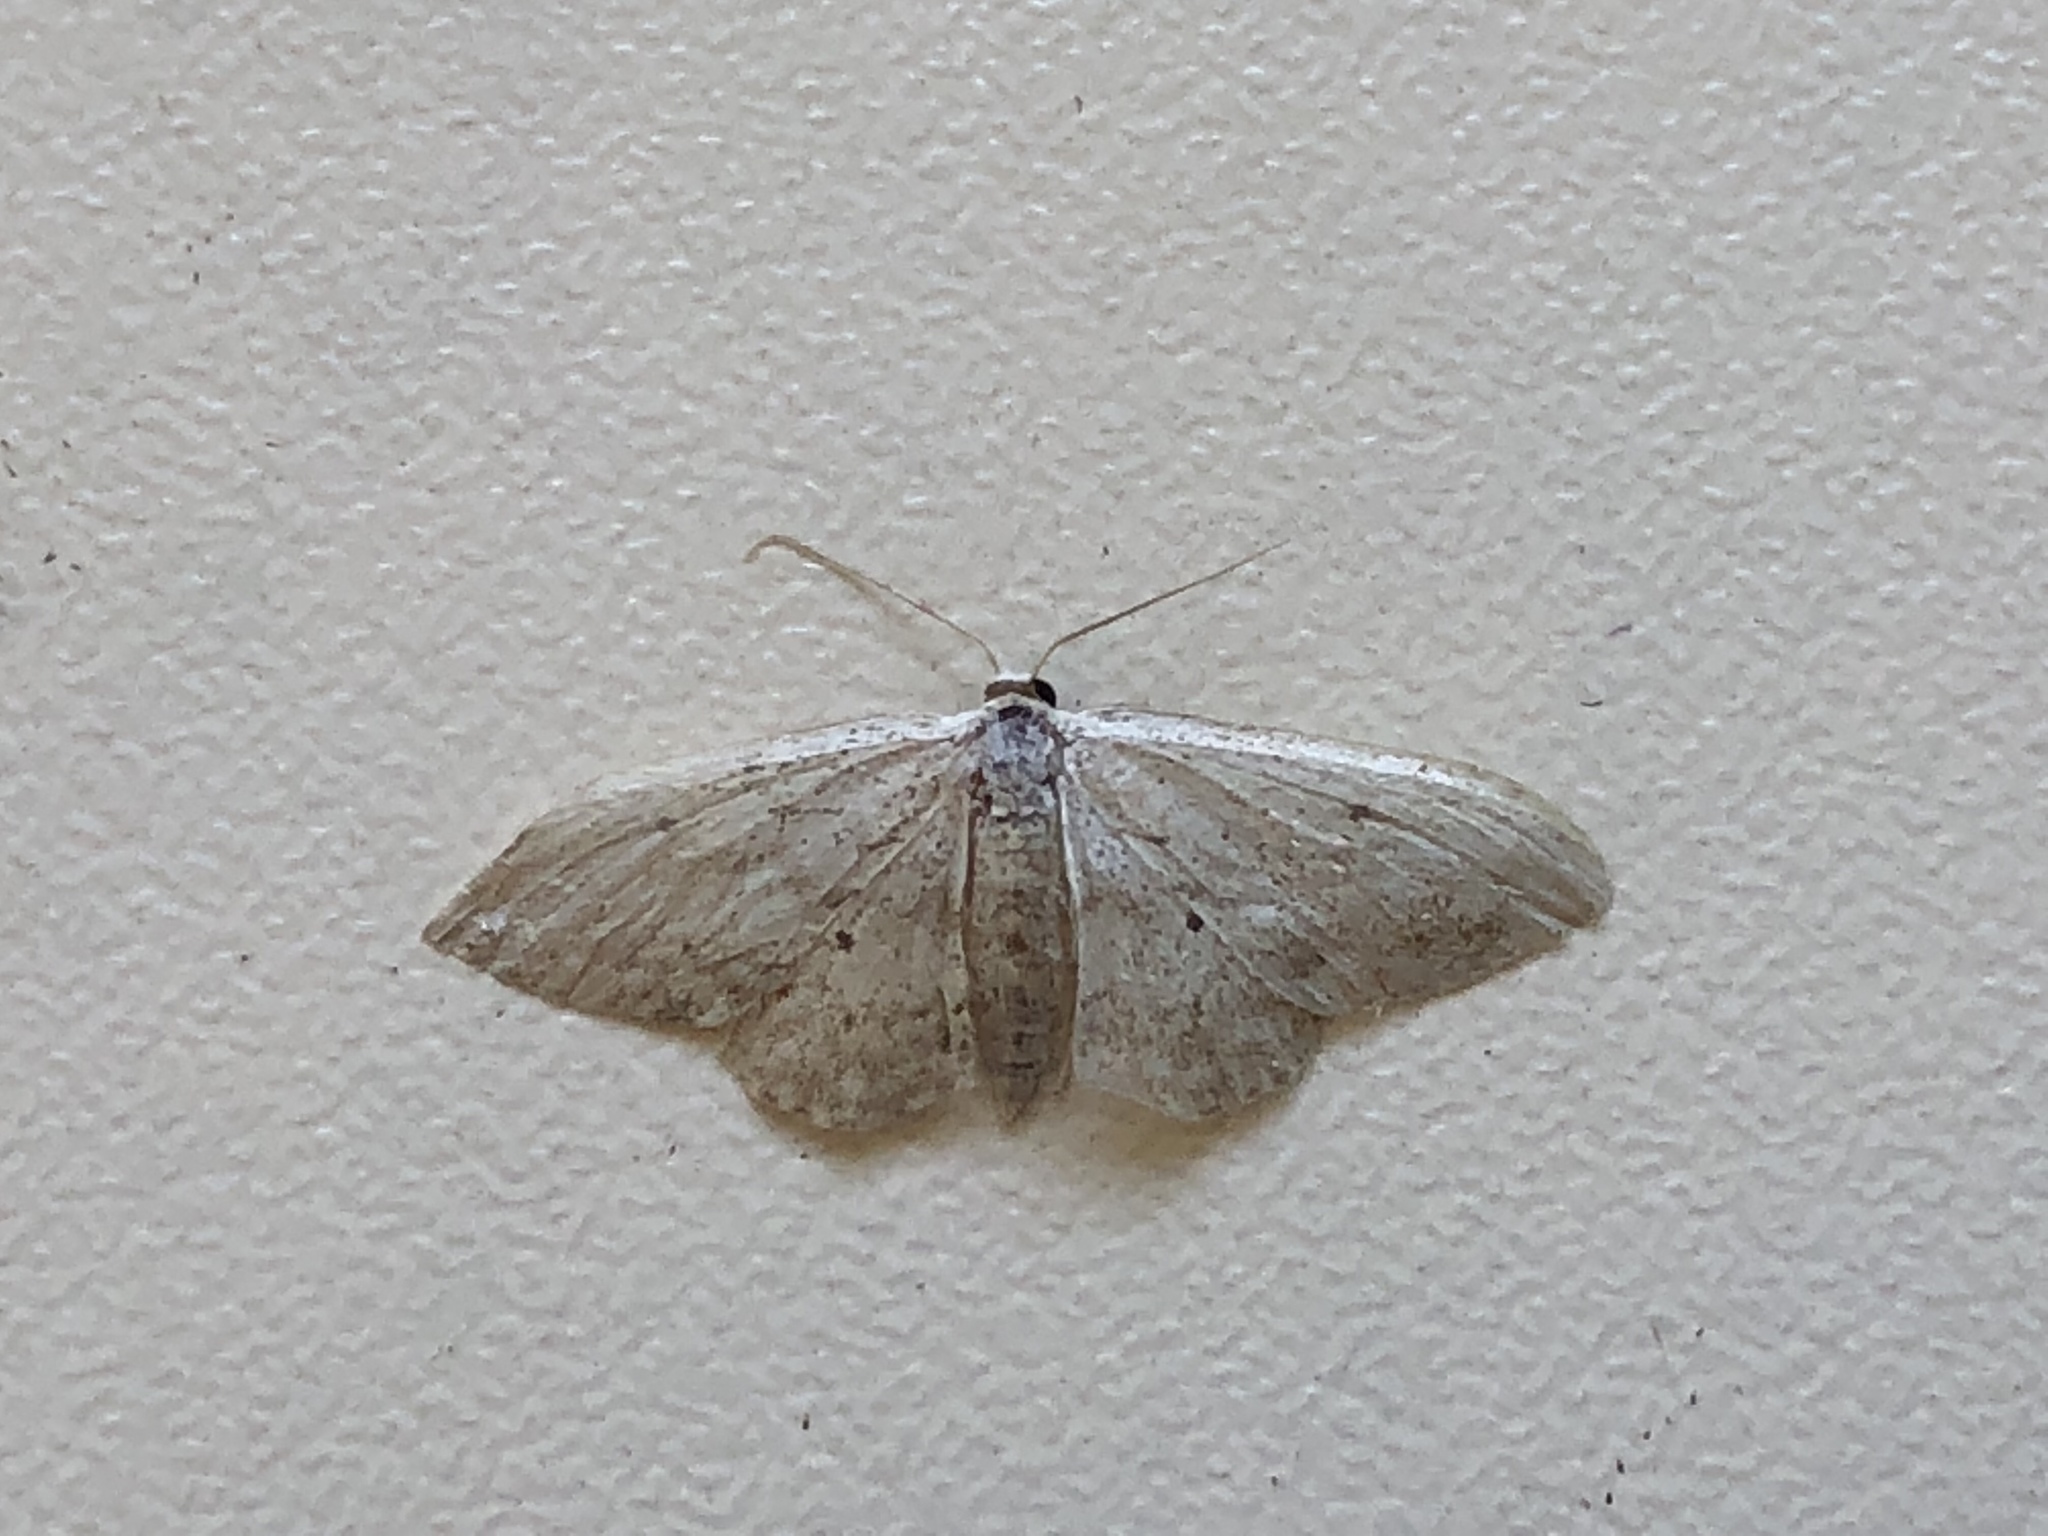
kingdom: Animalia
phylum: Arthropoda
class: Insecta
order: Lepidoptera
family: Geometridae
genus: Idaea
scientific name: Idaea seriata
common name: Small dusty wave
